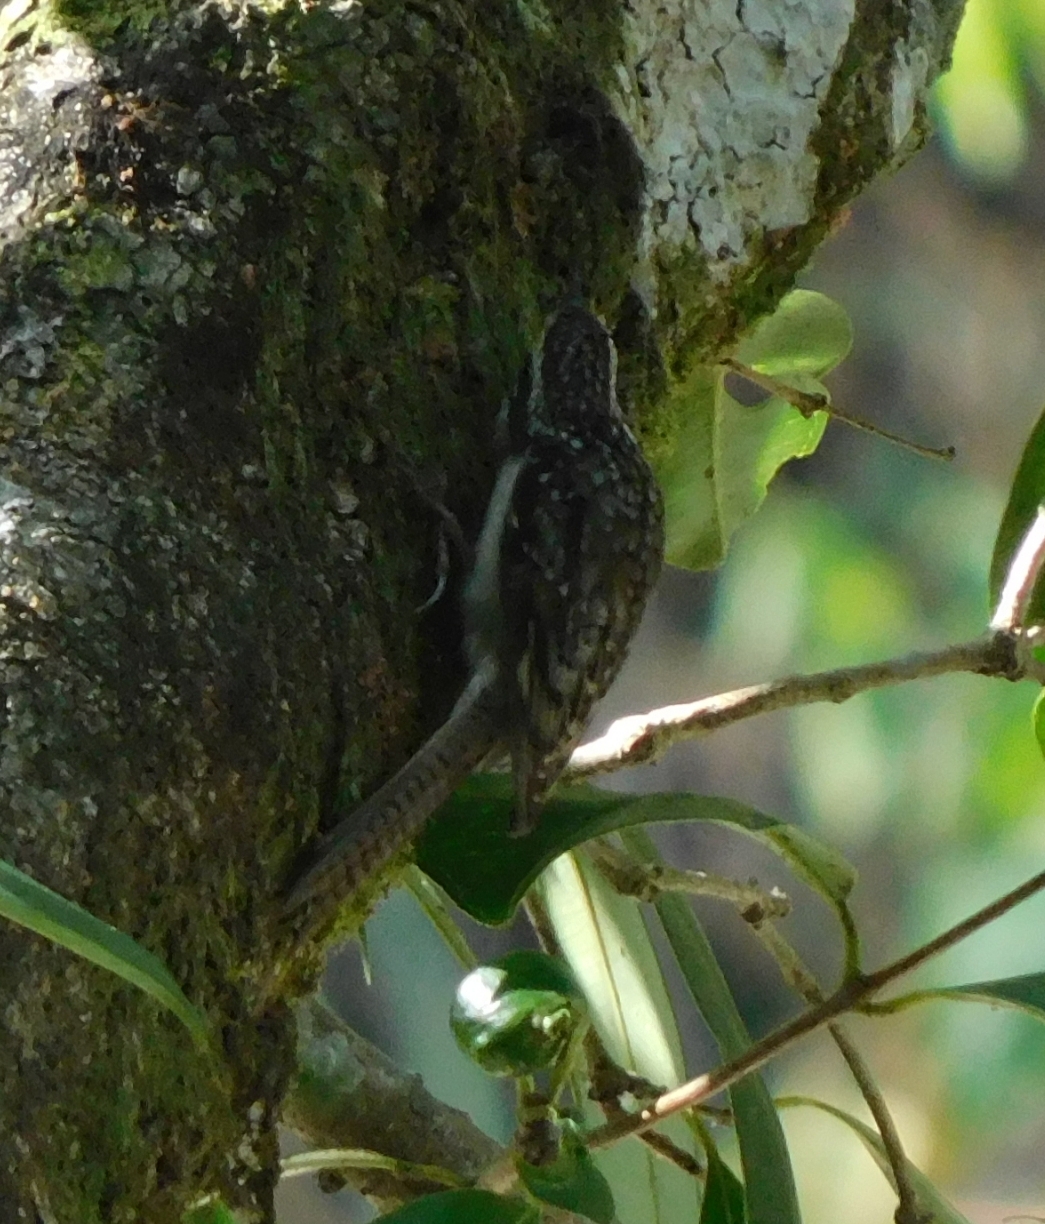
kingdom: Animalia
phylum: Chordata
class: Aves
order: Passeriformes
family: Certhiidae
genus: Certhia
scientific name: Certhia himalayana
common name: Bar-tailed treecreeper
